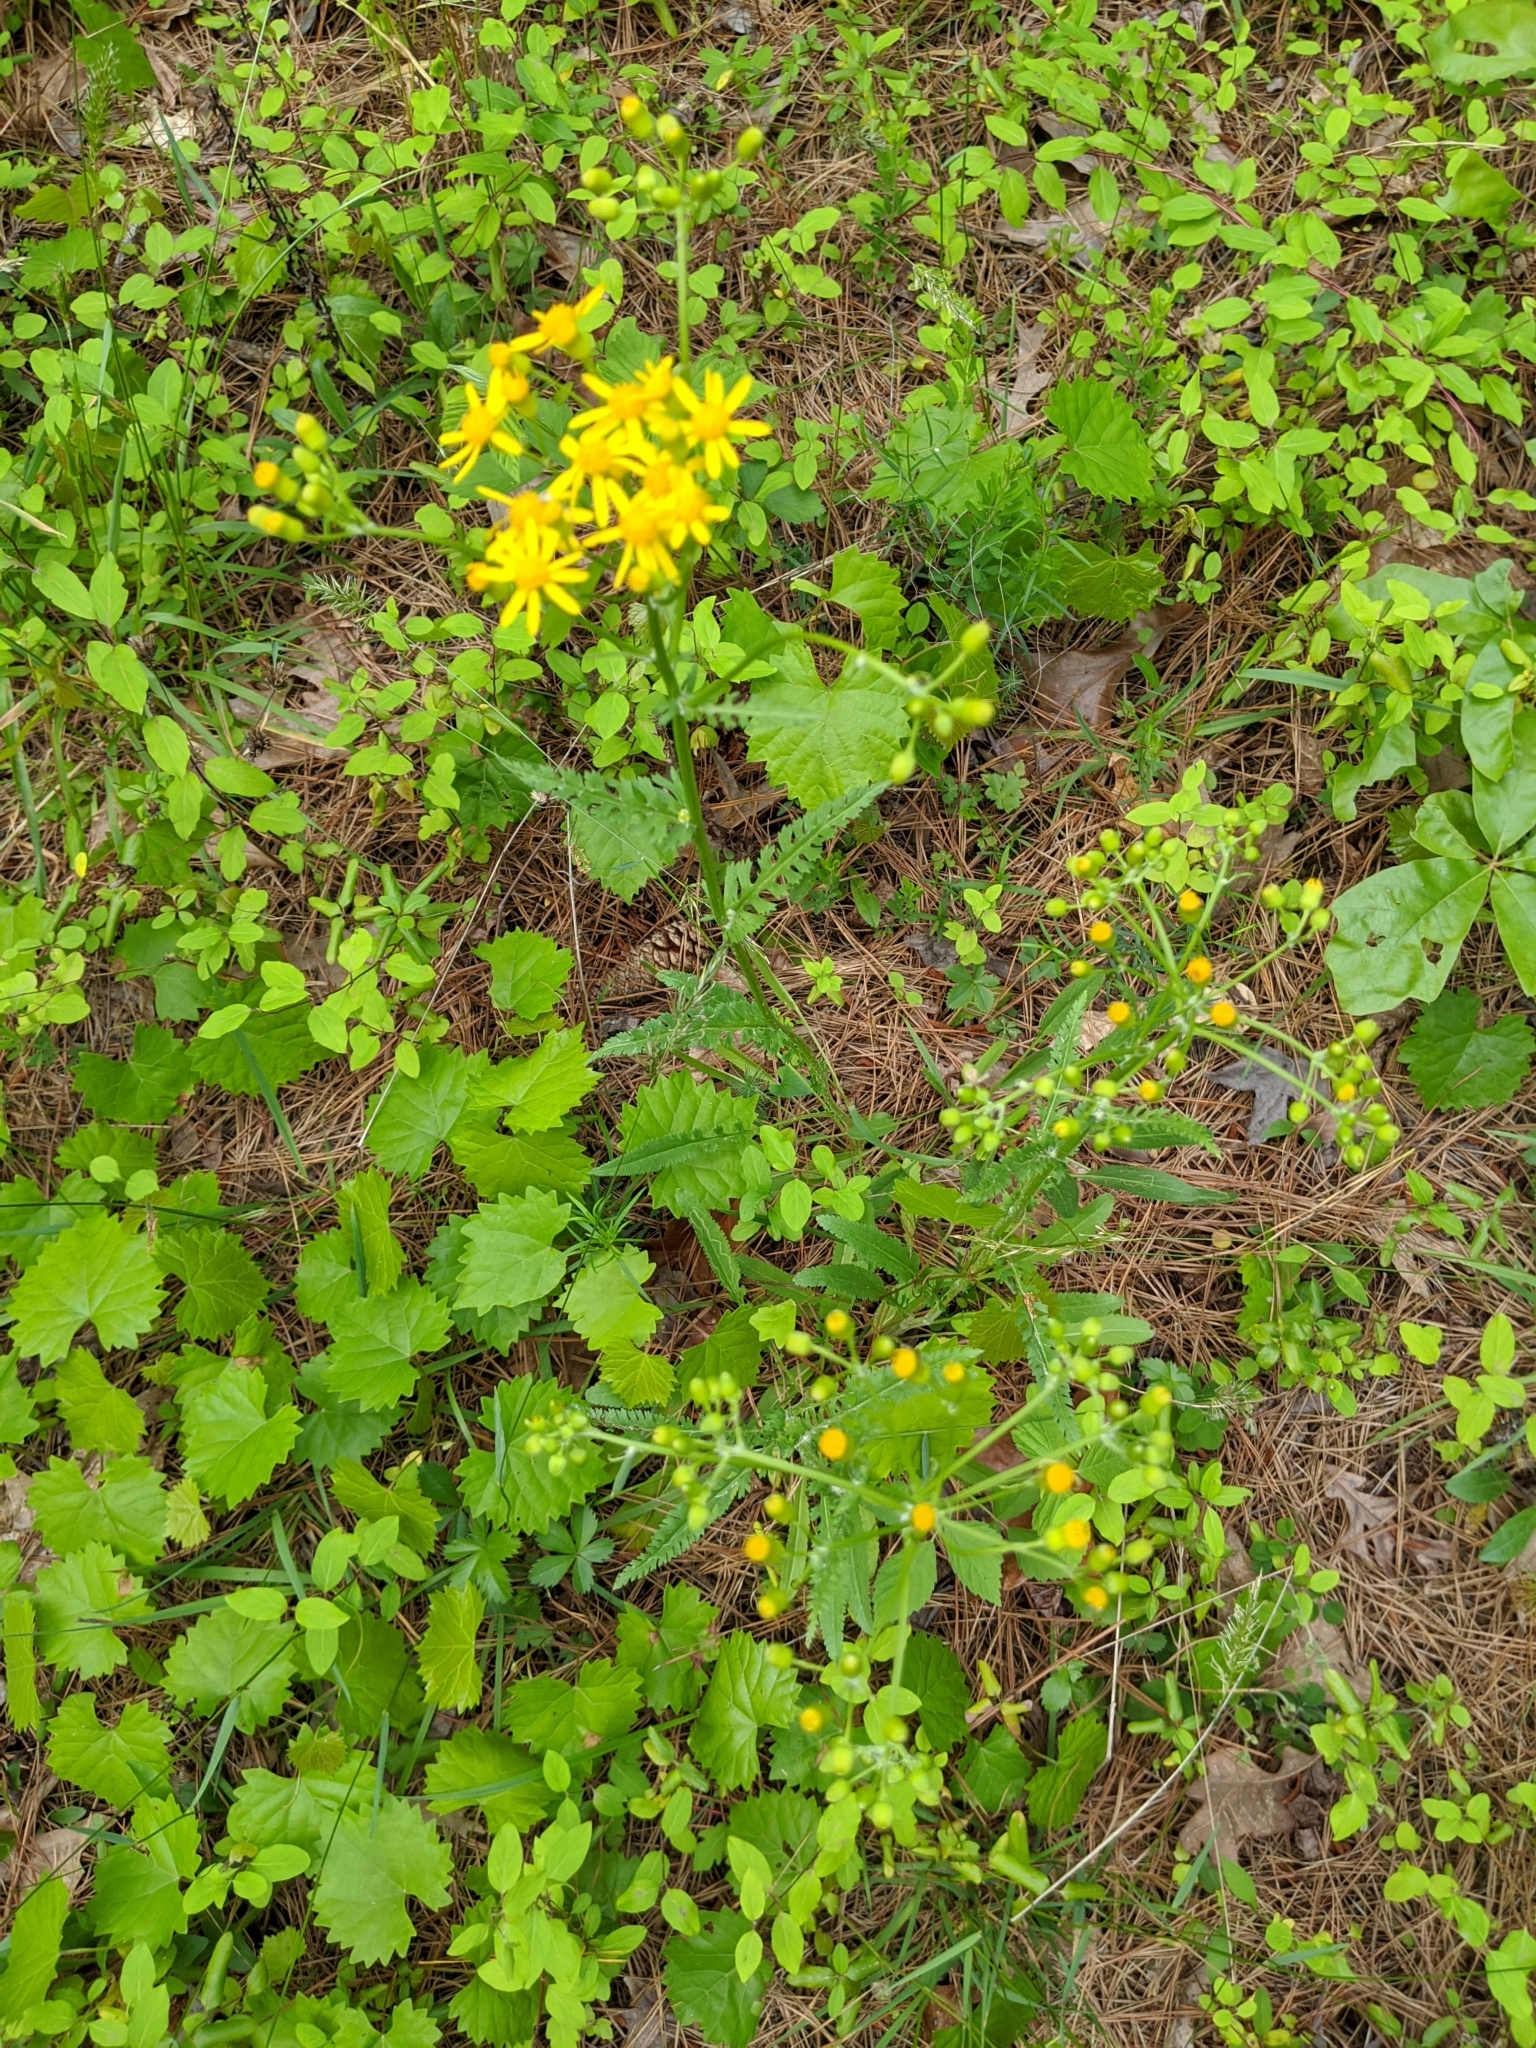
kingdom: Plantae
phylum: Tracheophyta
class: Magnoliopsida
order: Asterales
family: Asteraceae
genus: Packera
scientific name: Packera anonyma
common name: Small ragwort
